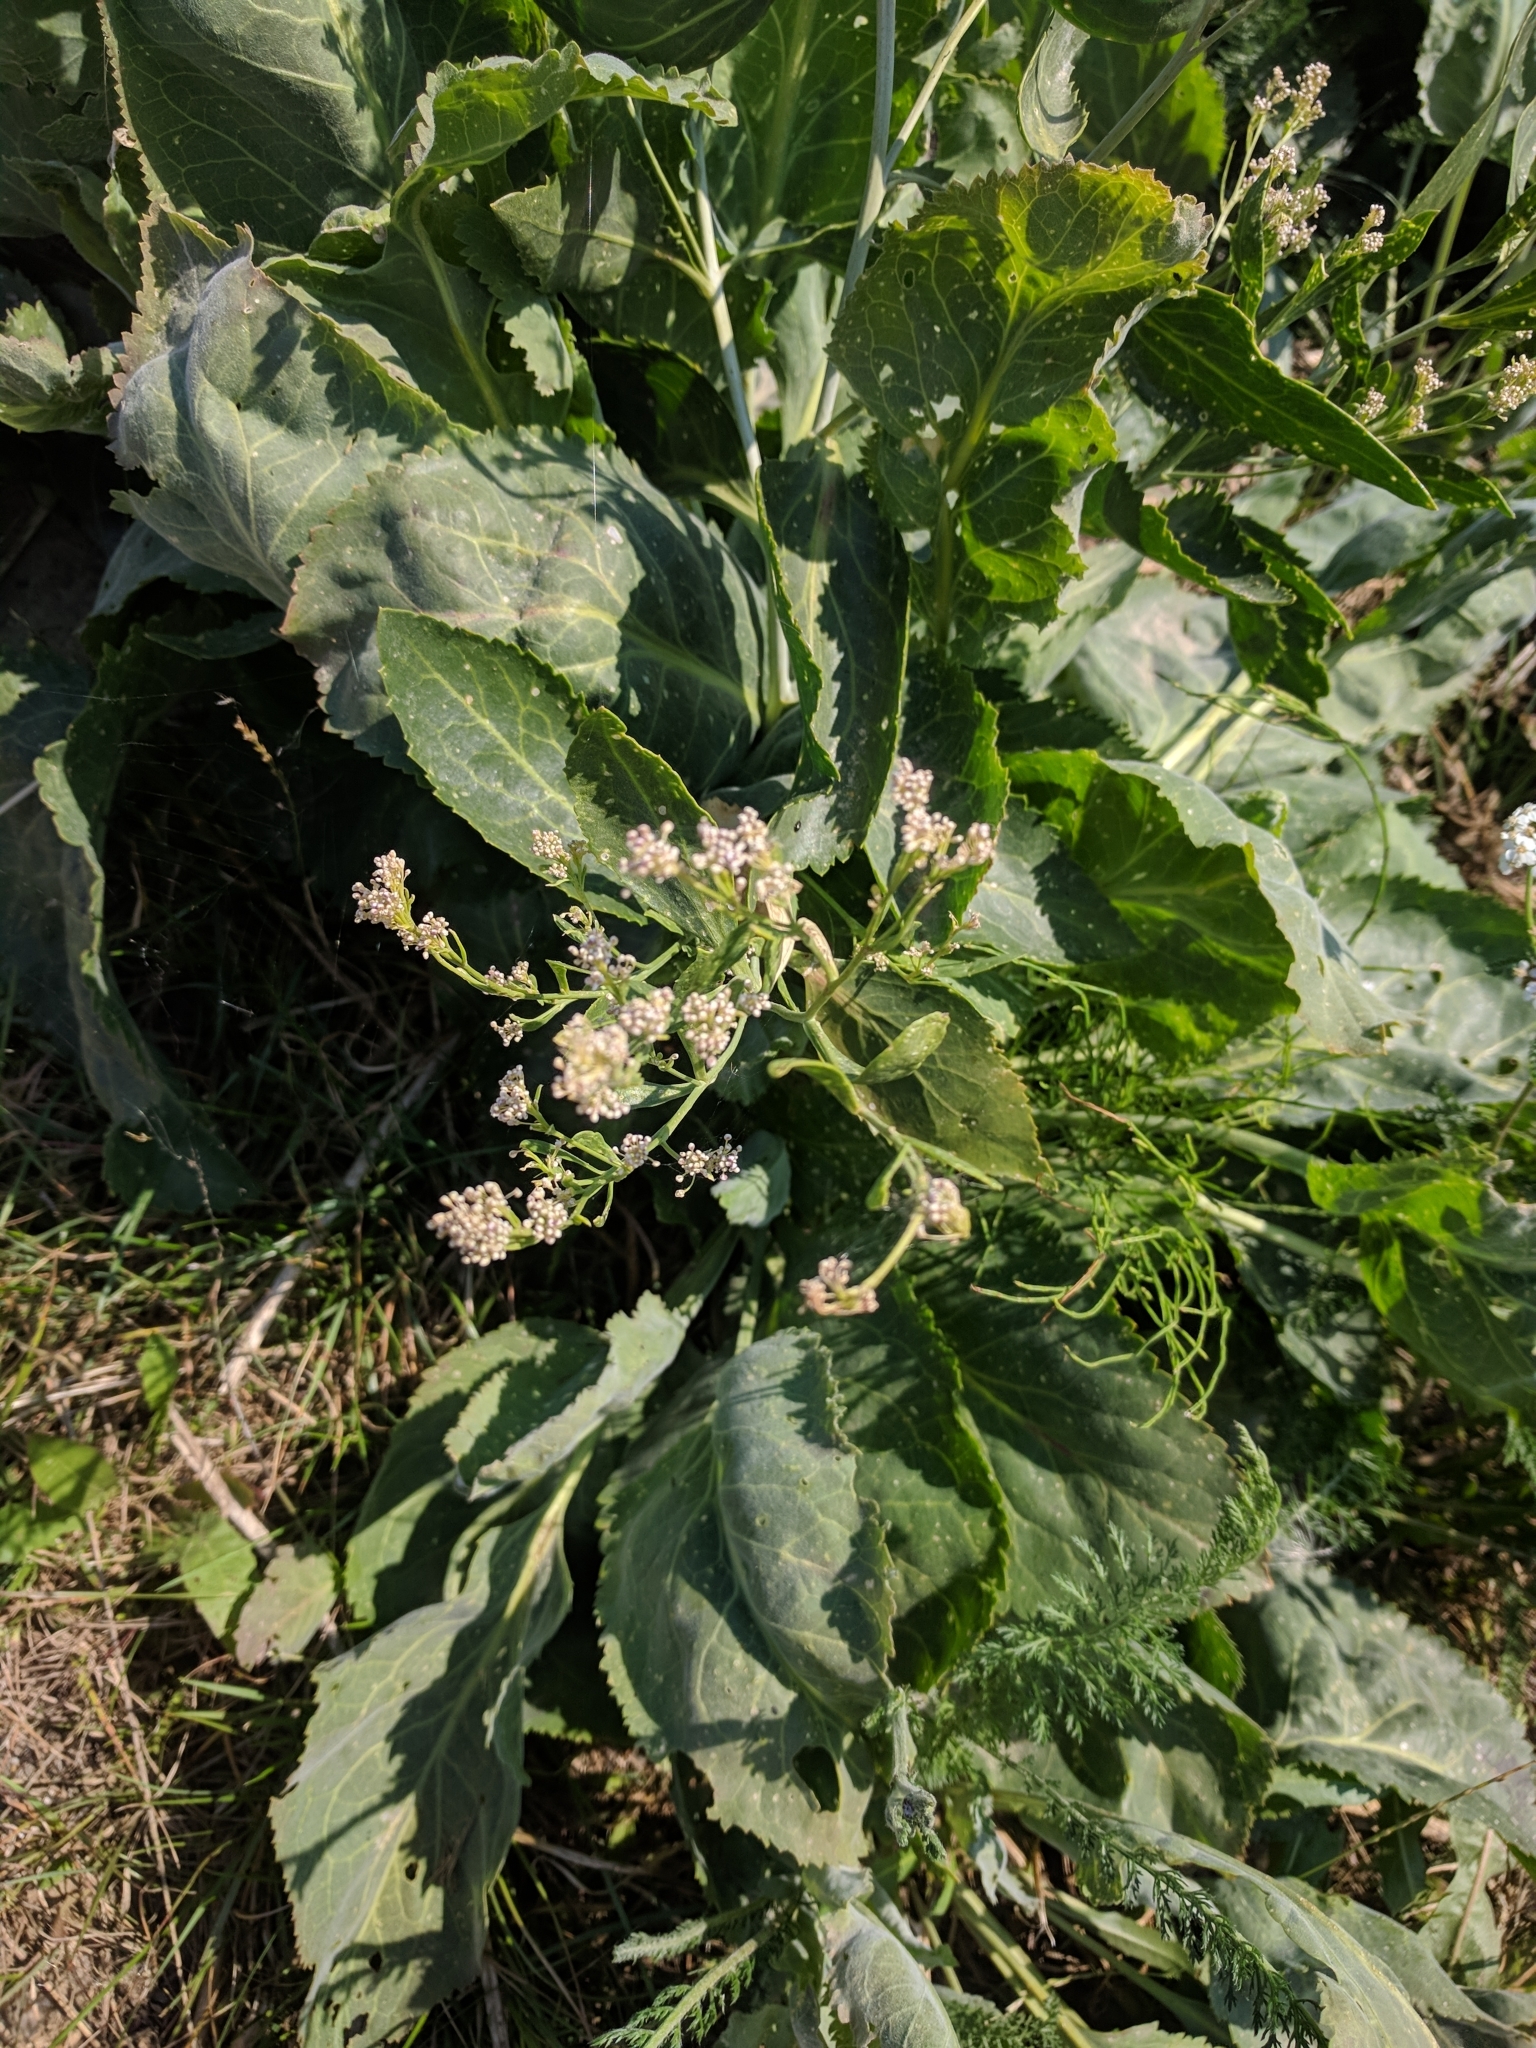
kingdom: Plantae
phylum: Tracheophyta
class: Magnoliopsida
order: Brassicales
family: Brassicaceae
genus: Lepidium
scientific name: Lepidium latifolium
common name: Dittander
